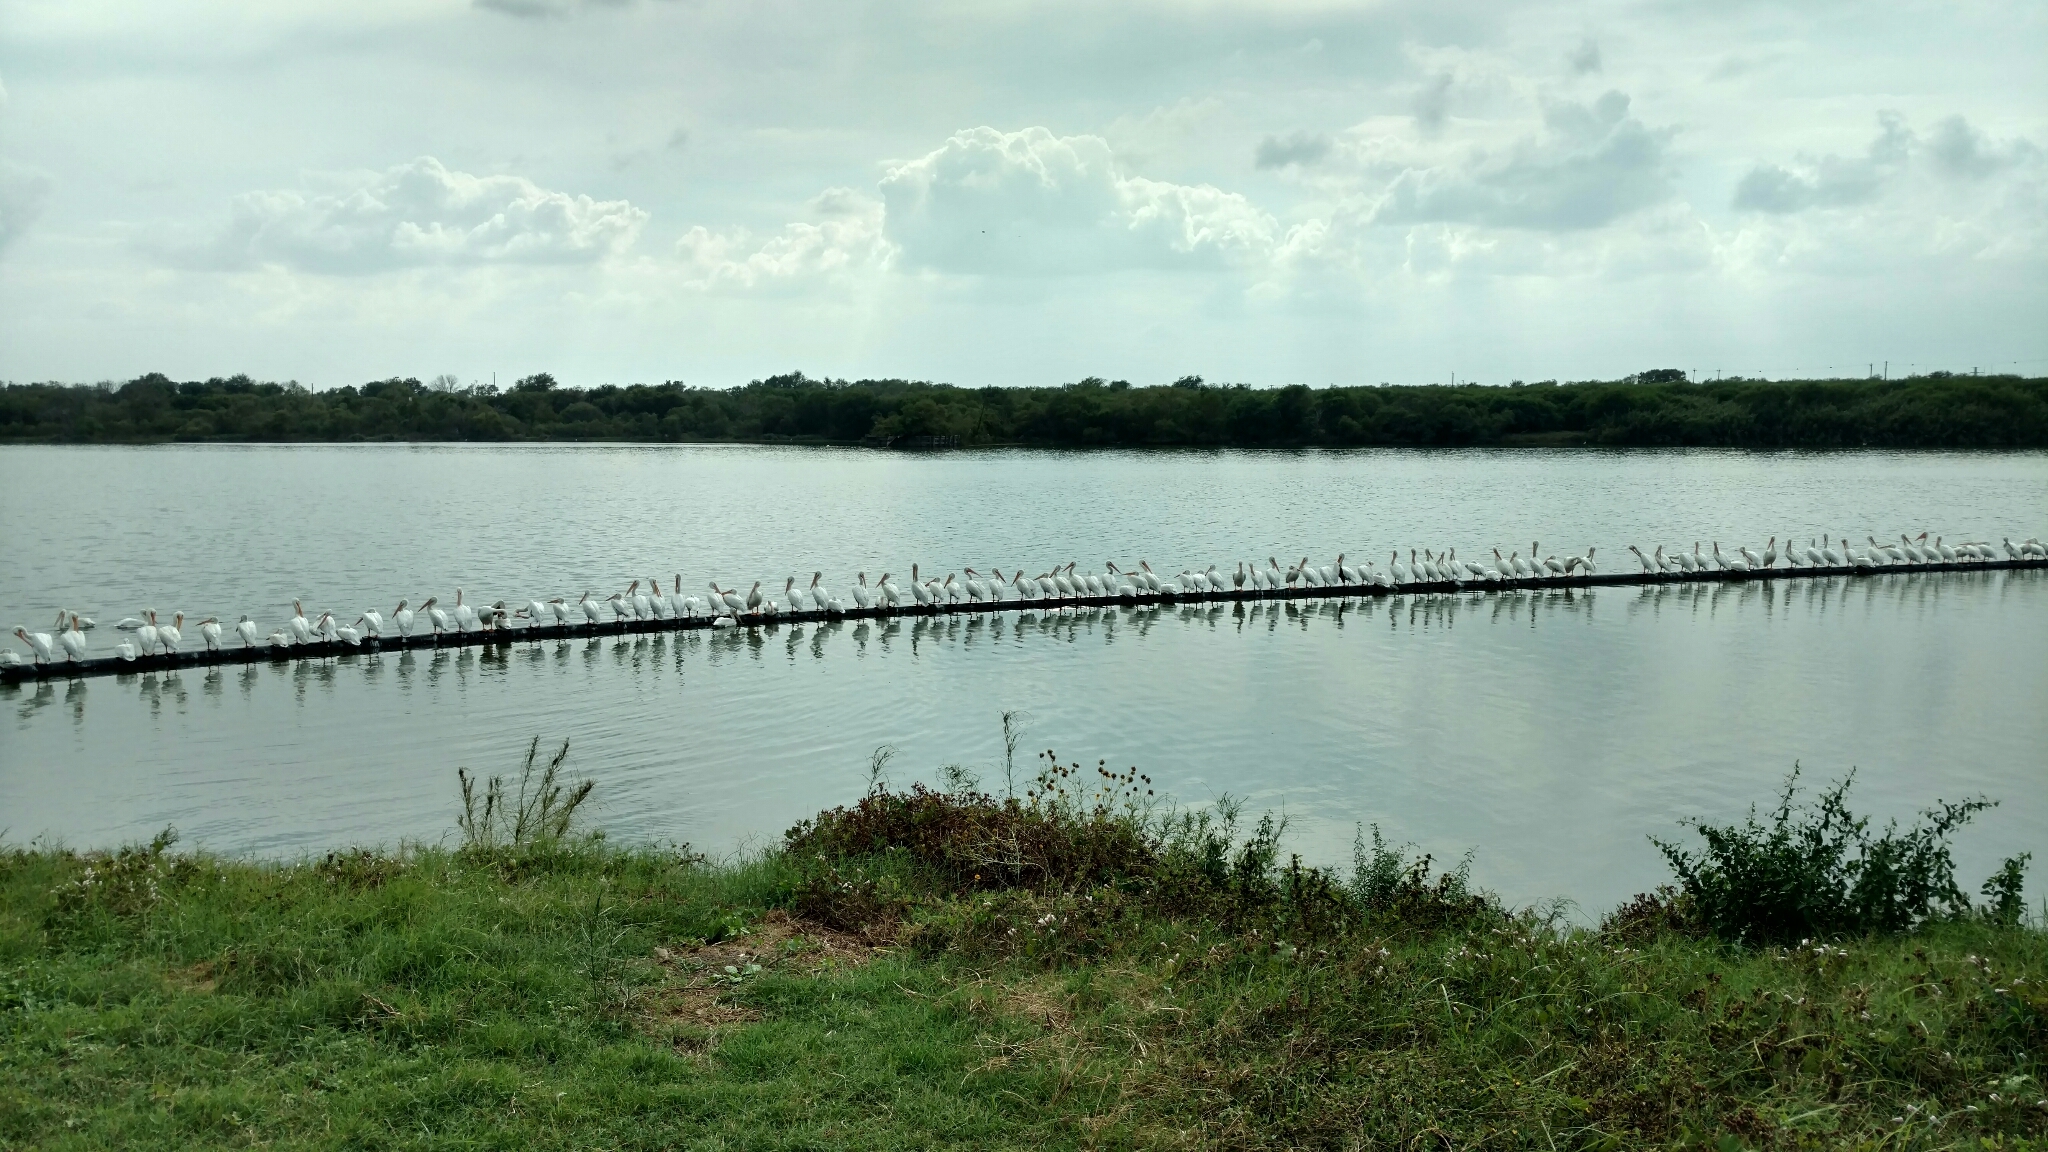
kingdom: Animalia
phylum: Chordata
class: Aves
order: Pelecaniformes
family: Pelecanidae
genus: Pelecanus
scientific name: Pelecanus erythrorhynchos
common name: American white pelican
